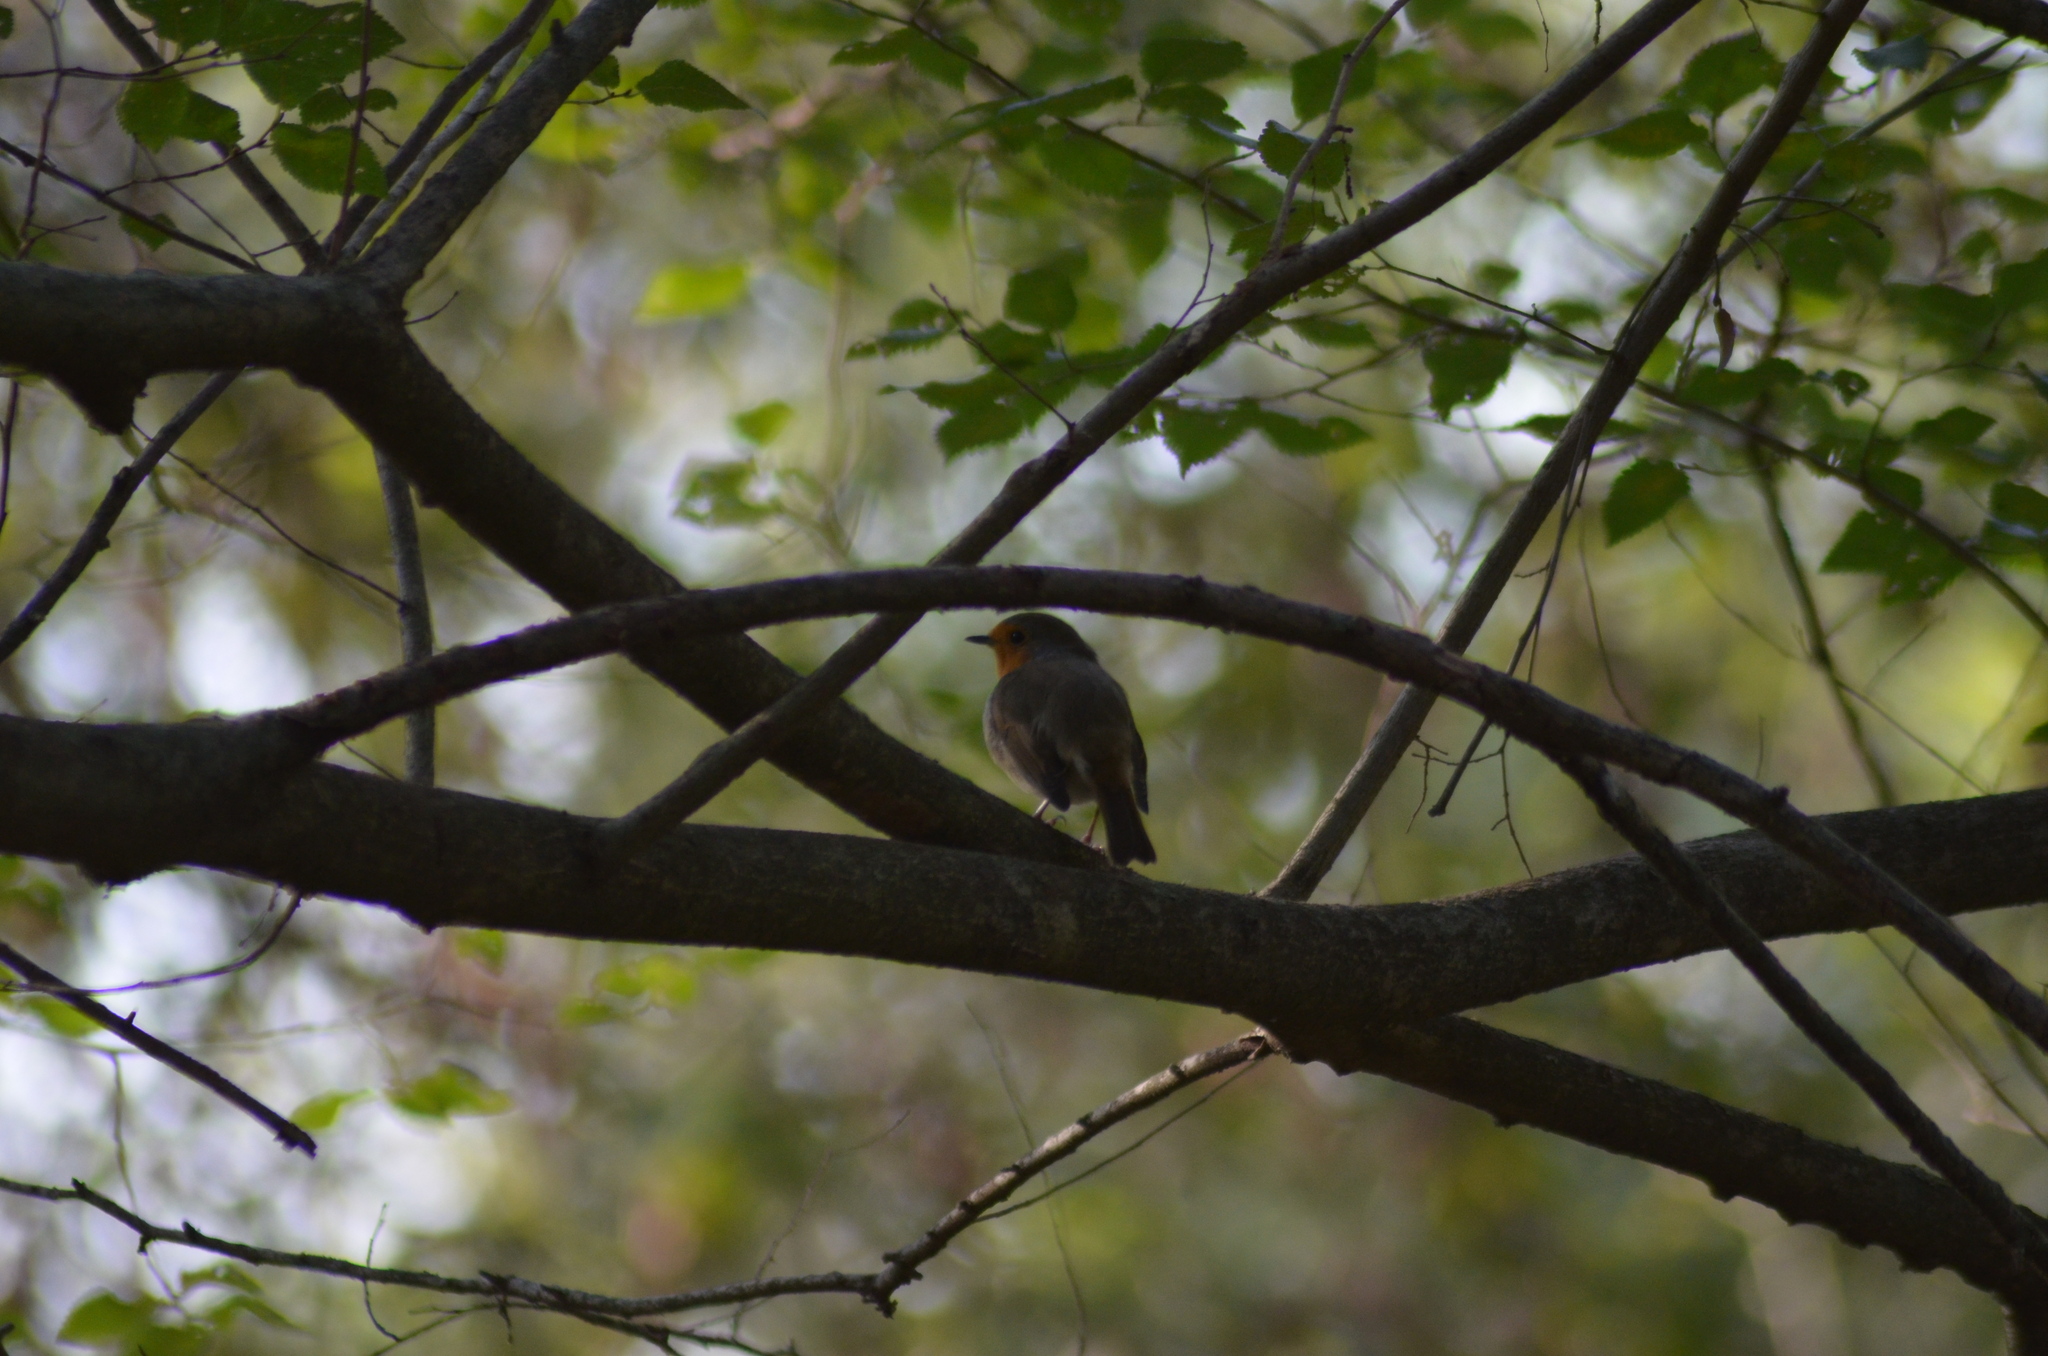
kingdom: Animalia
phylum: Chordata
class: Aves
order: Passeriformes
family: Muscicapidae
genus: Erithacus
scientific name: Erithacus rubecula
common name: European robin
